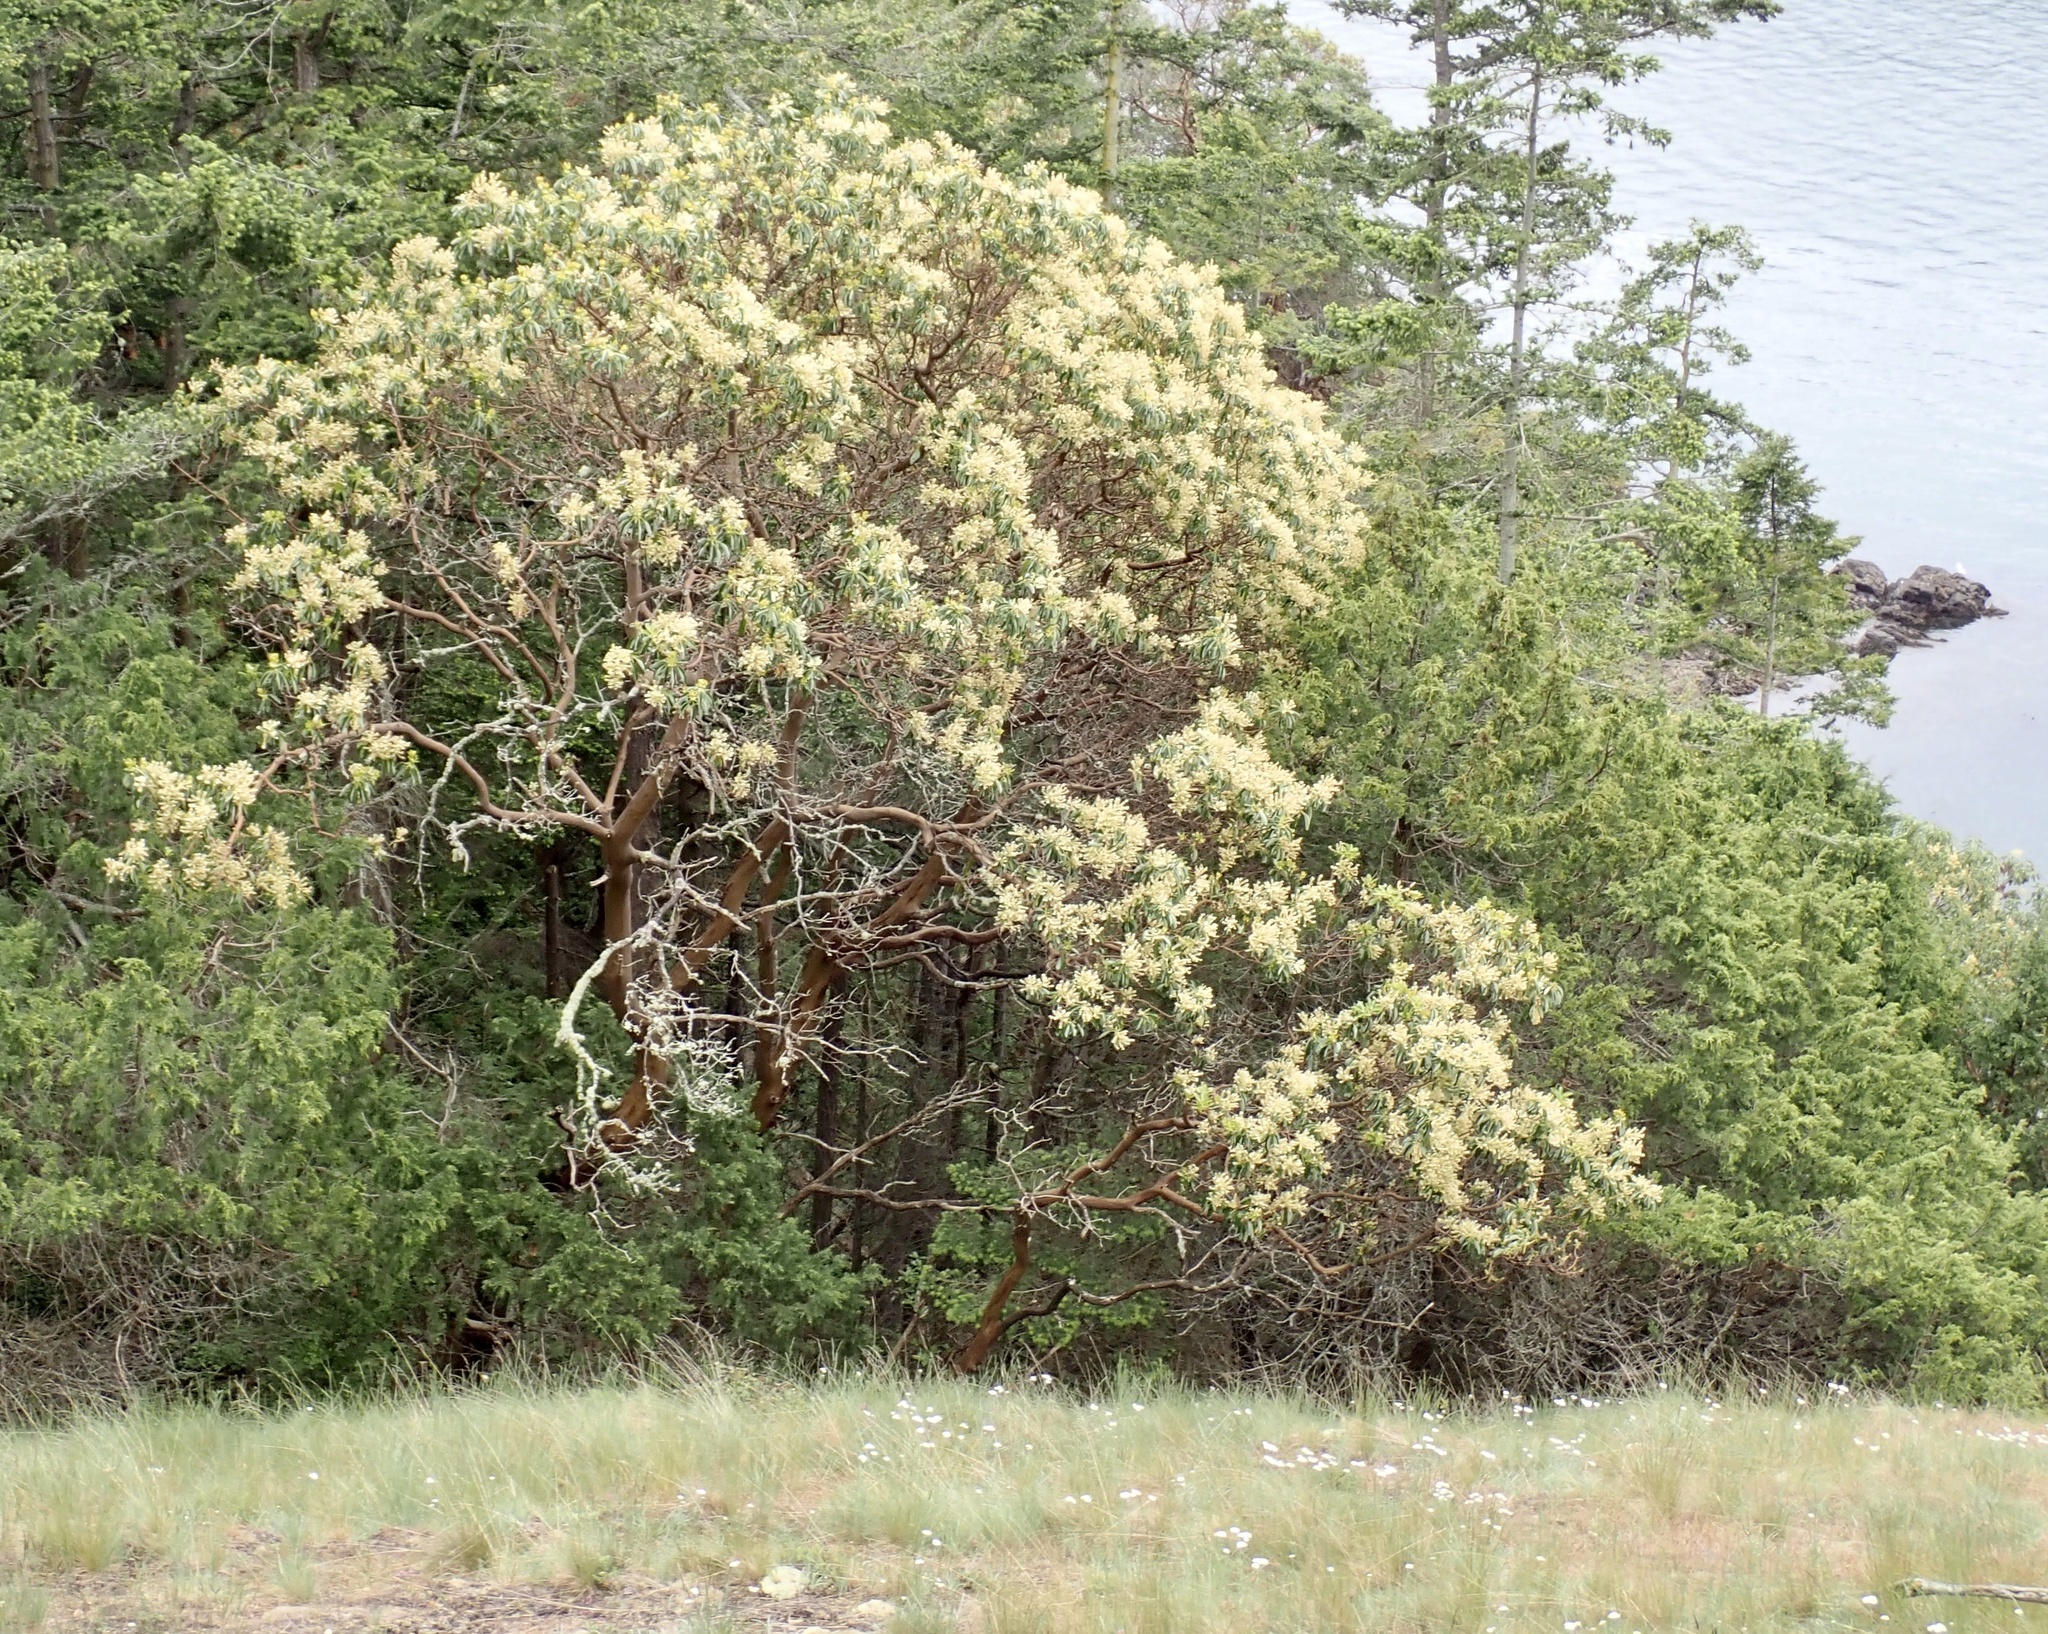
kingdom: Plantae
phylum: Tracheophyta
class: Magnoliopsida
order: Ericales
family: Ericaceae
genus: Arbutus
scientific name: Arbutus menziesii
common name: Pacific madrone
